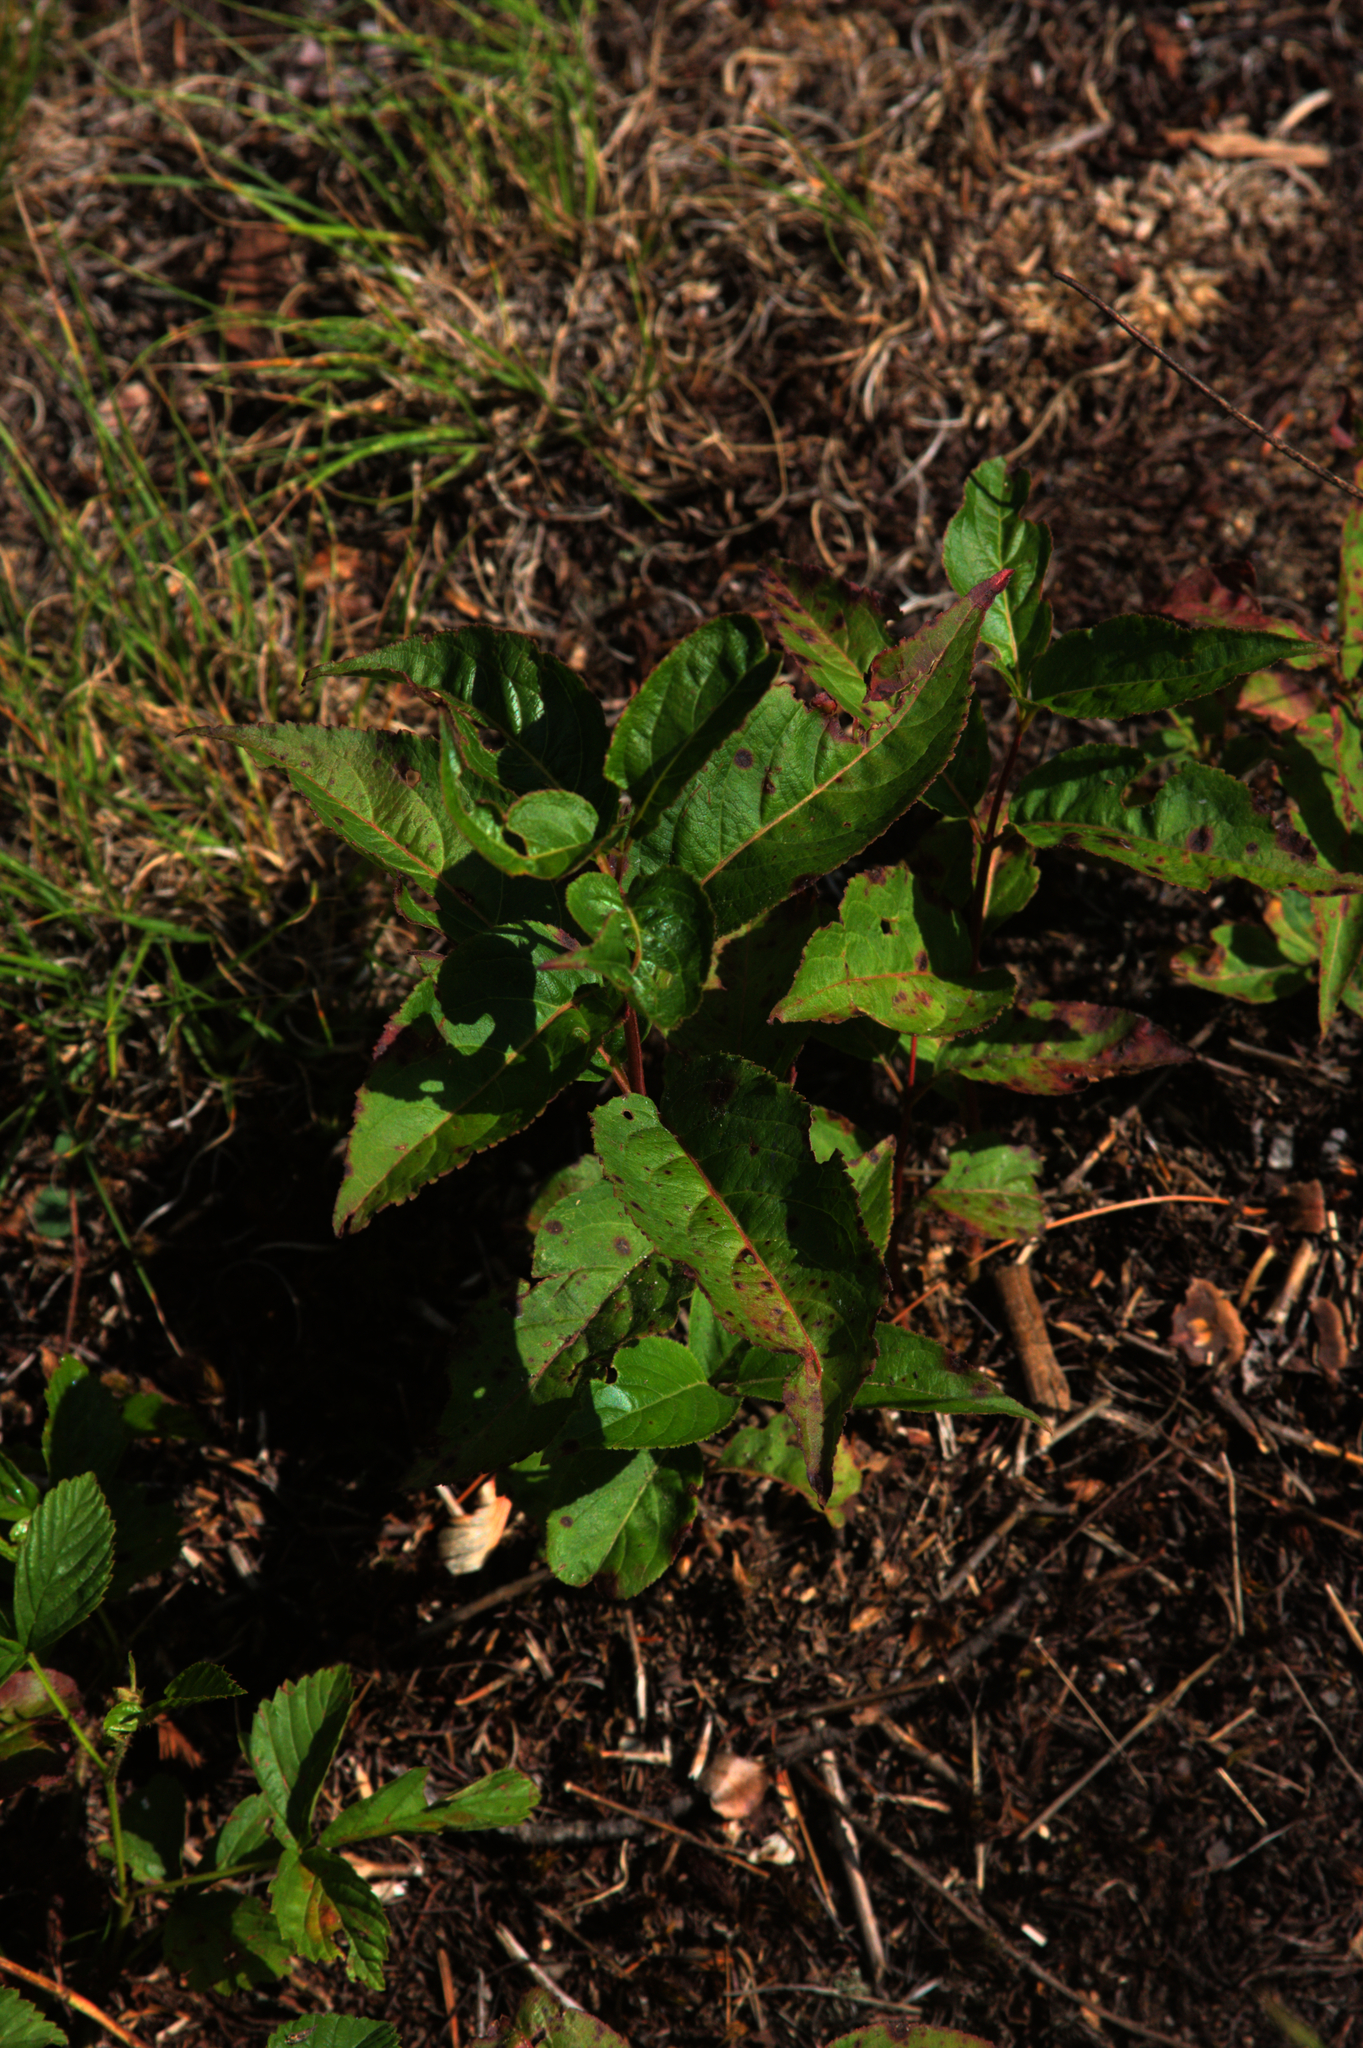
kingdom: Plantae
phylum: Tracheophyta
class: Magnoliopsida
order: Dipsacales
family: Viburnaceae
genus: Viburnum
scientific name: Viburnum cassinoides
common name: Swamp haw
